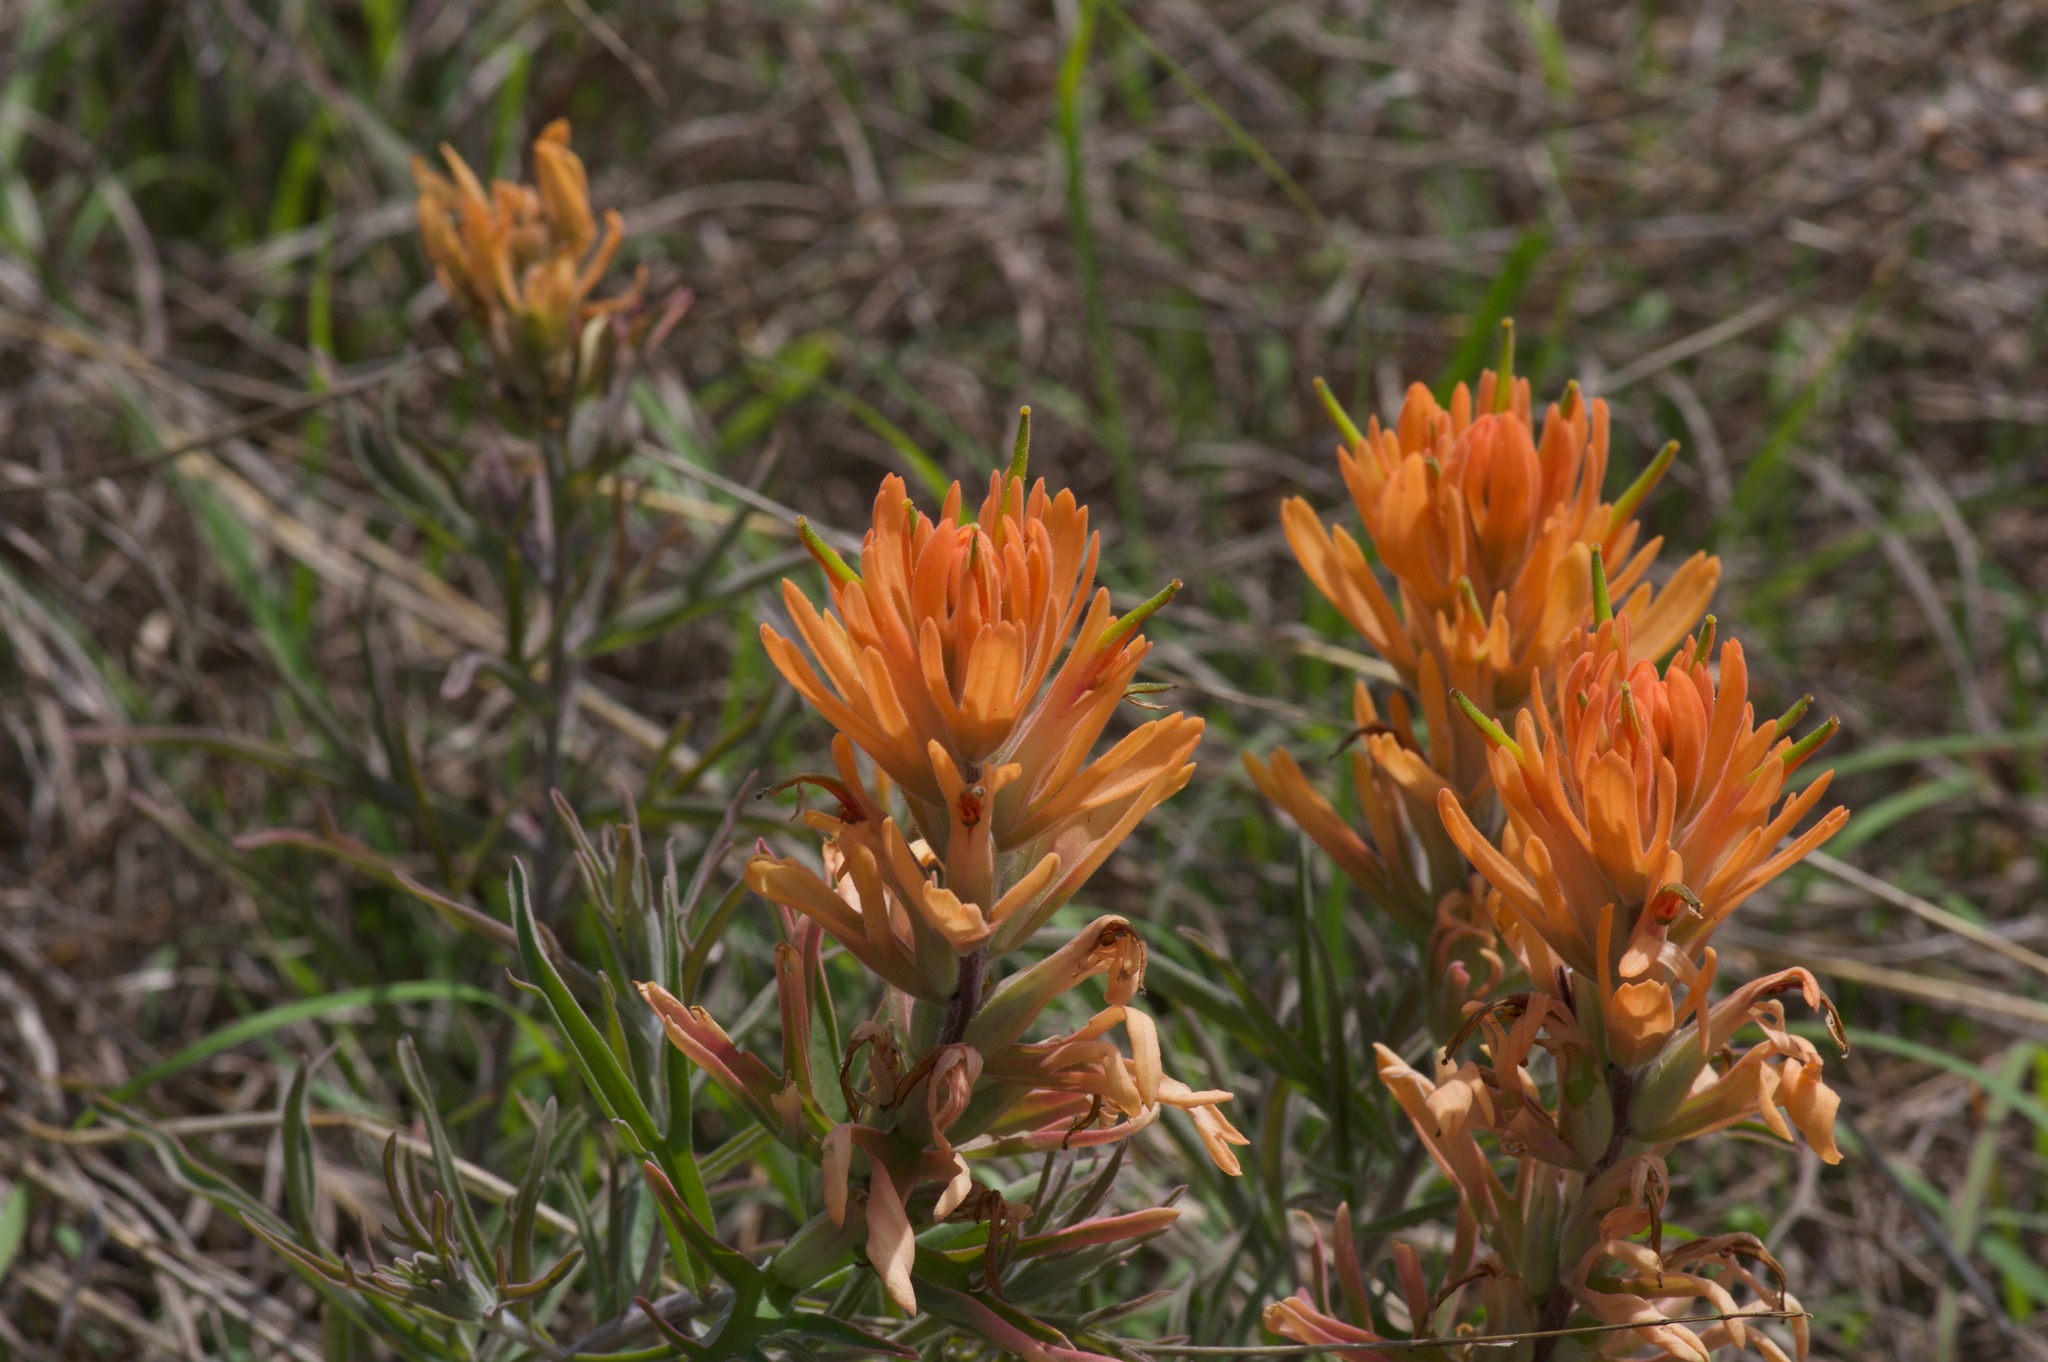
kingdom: Plantae
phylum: Tracheophyta
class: Magnoliopsida
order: Lamiales
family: Orobanchaceae
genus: Castilleja
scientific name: Castilleja lindheimeri
